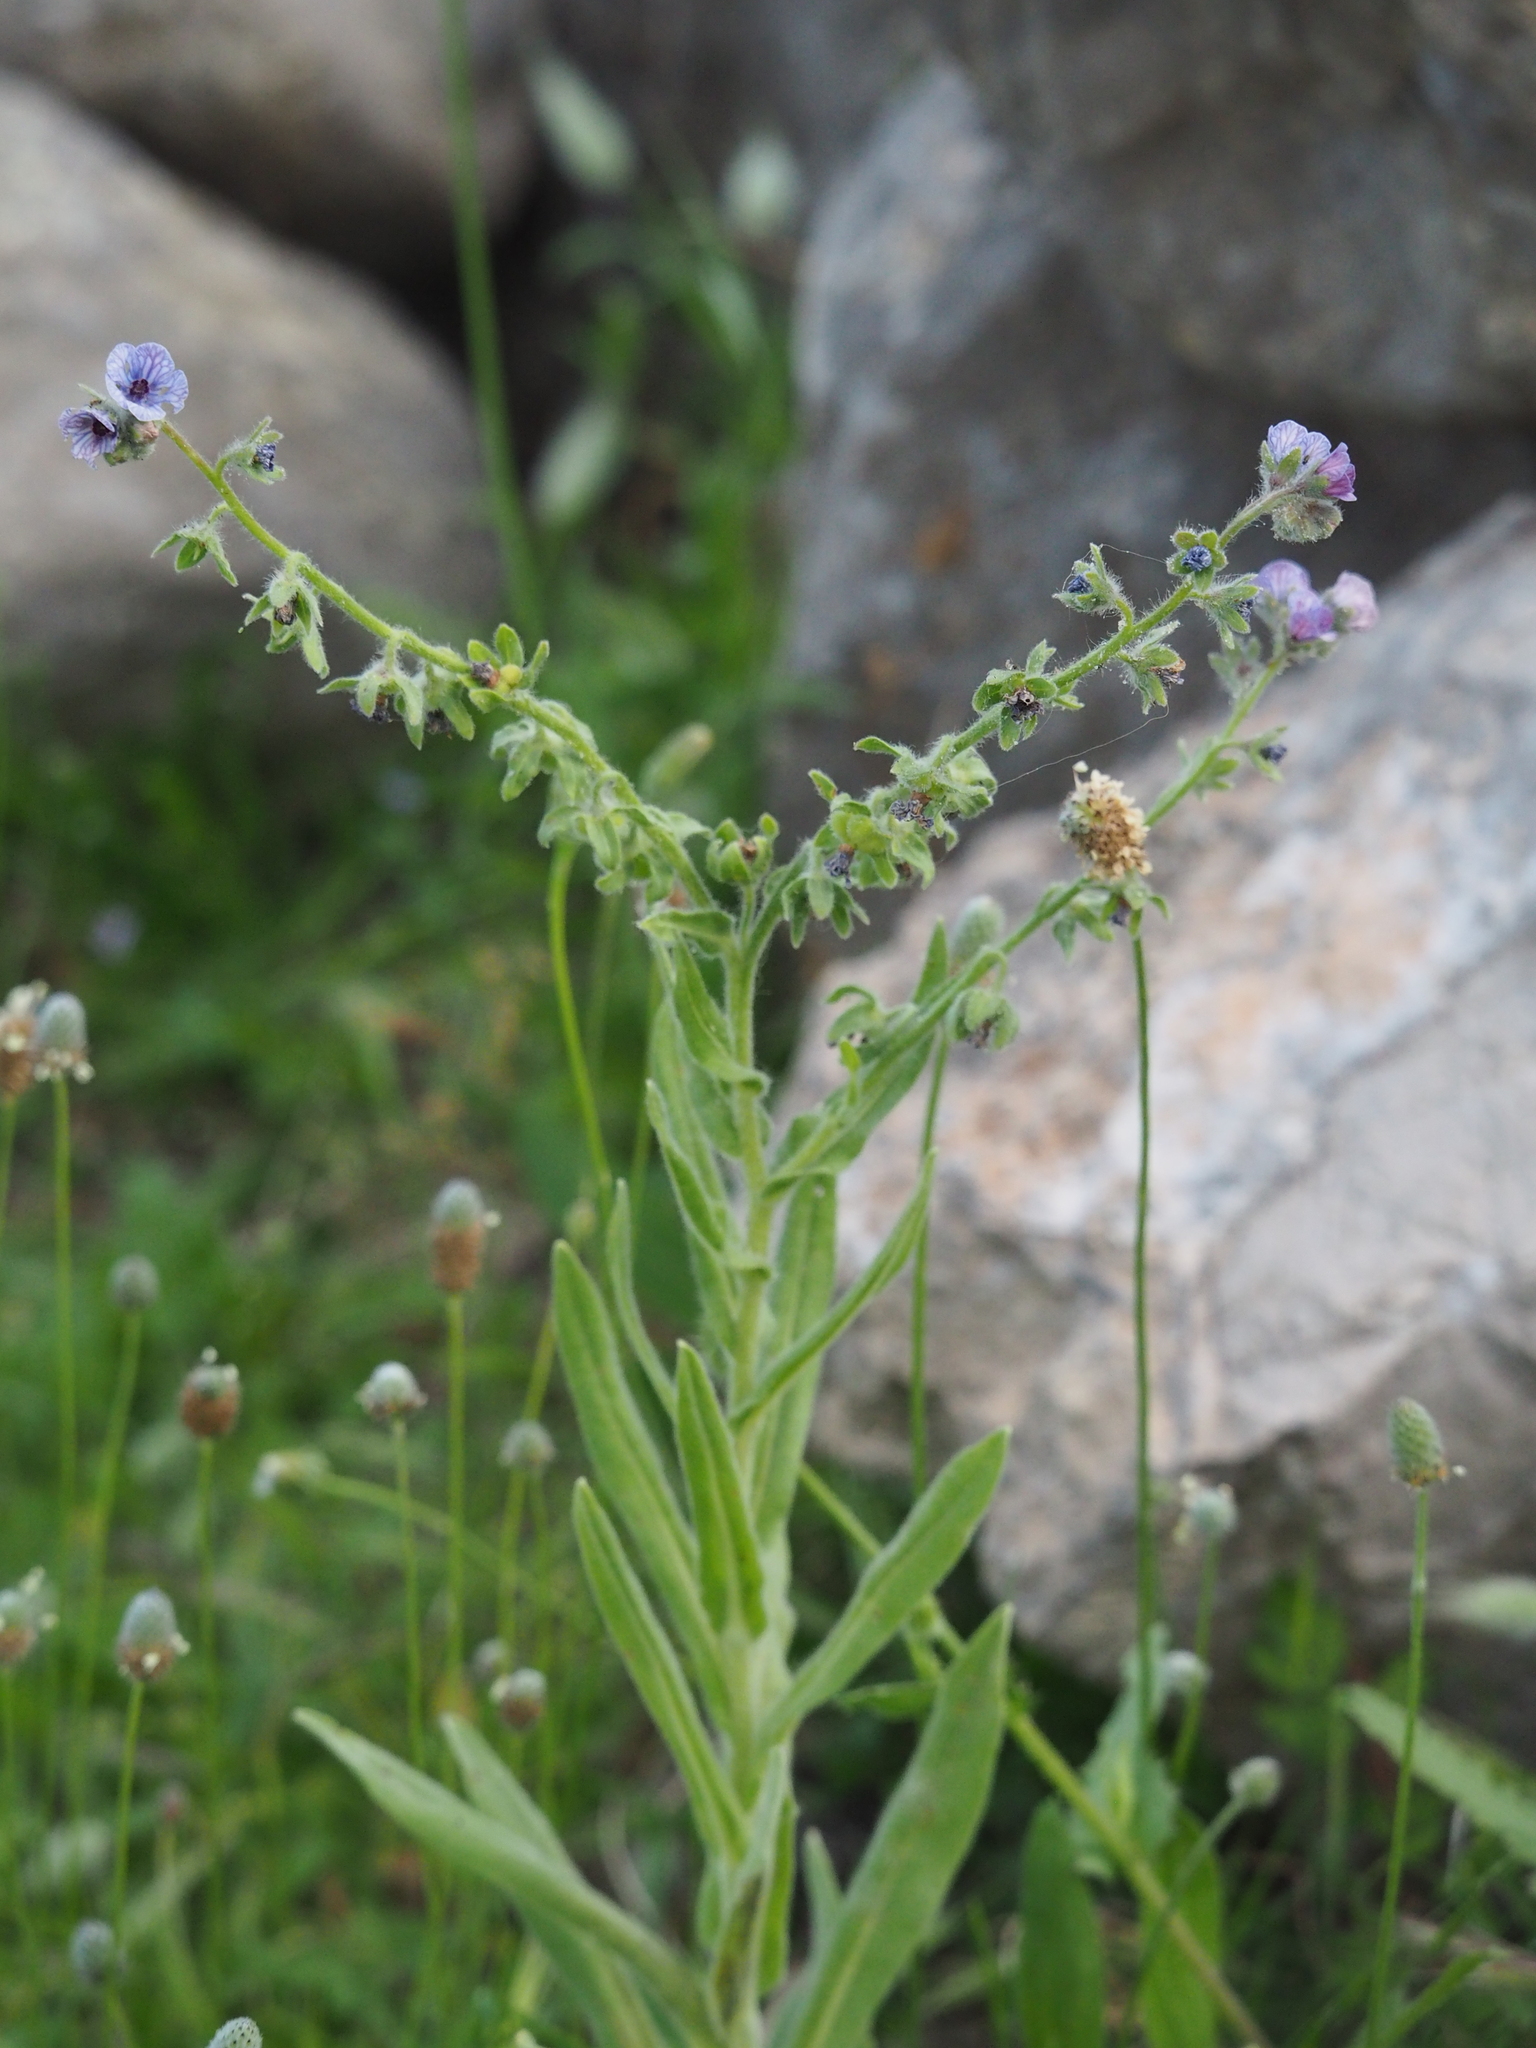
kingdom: Plantae
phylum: Tracheophyta
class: Magnoliopsida
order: Boraginales
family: Boraginaceae
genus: Cynoglossum
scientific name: Cynoglossum creticum
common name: Blue hound's tongue
